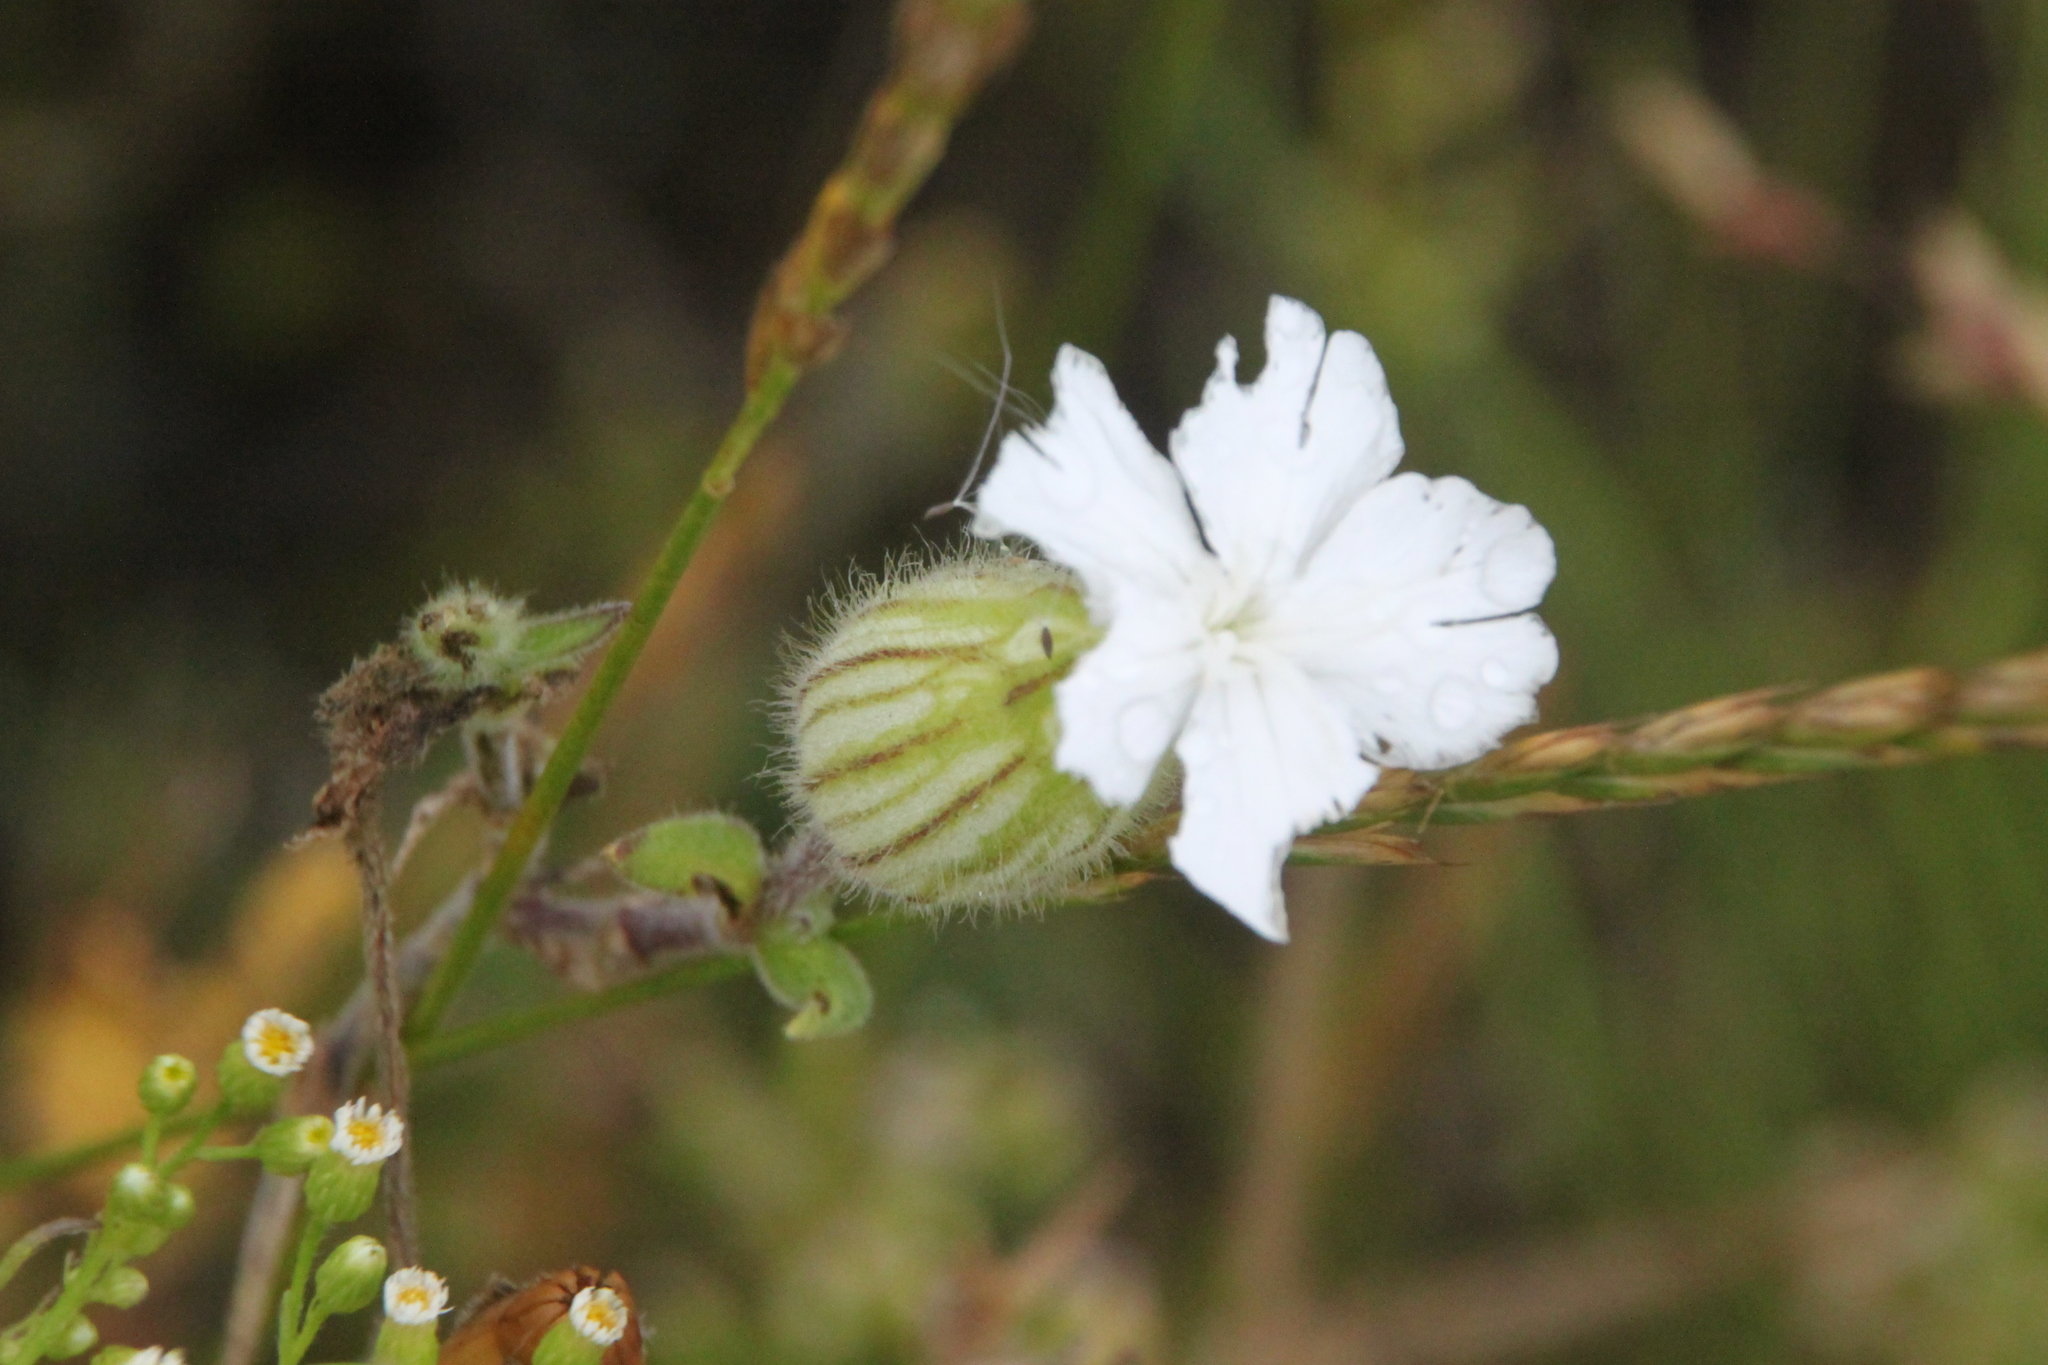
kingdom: Plantae
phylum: Tracheophyta
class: Magnoliopsida
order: Caryophyllales
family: Caryophyllaceae
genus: Silene
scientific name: Silene latifolia
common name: White campion
